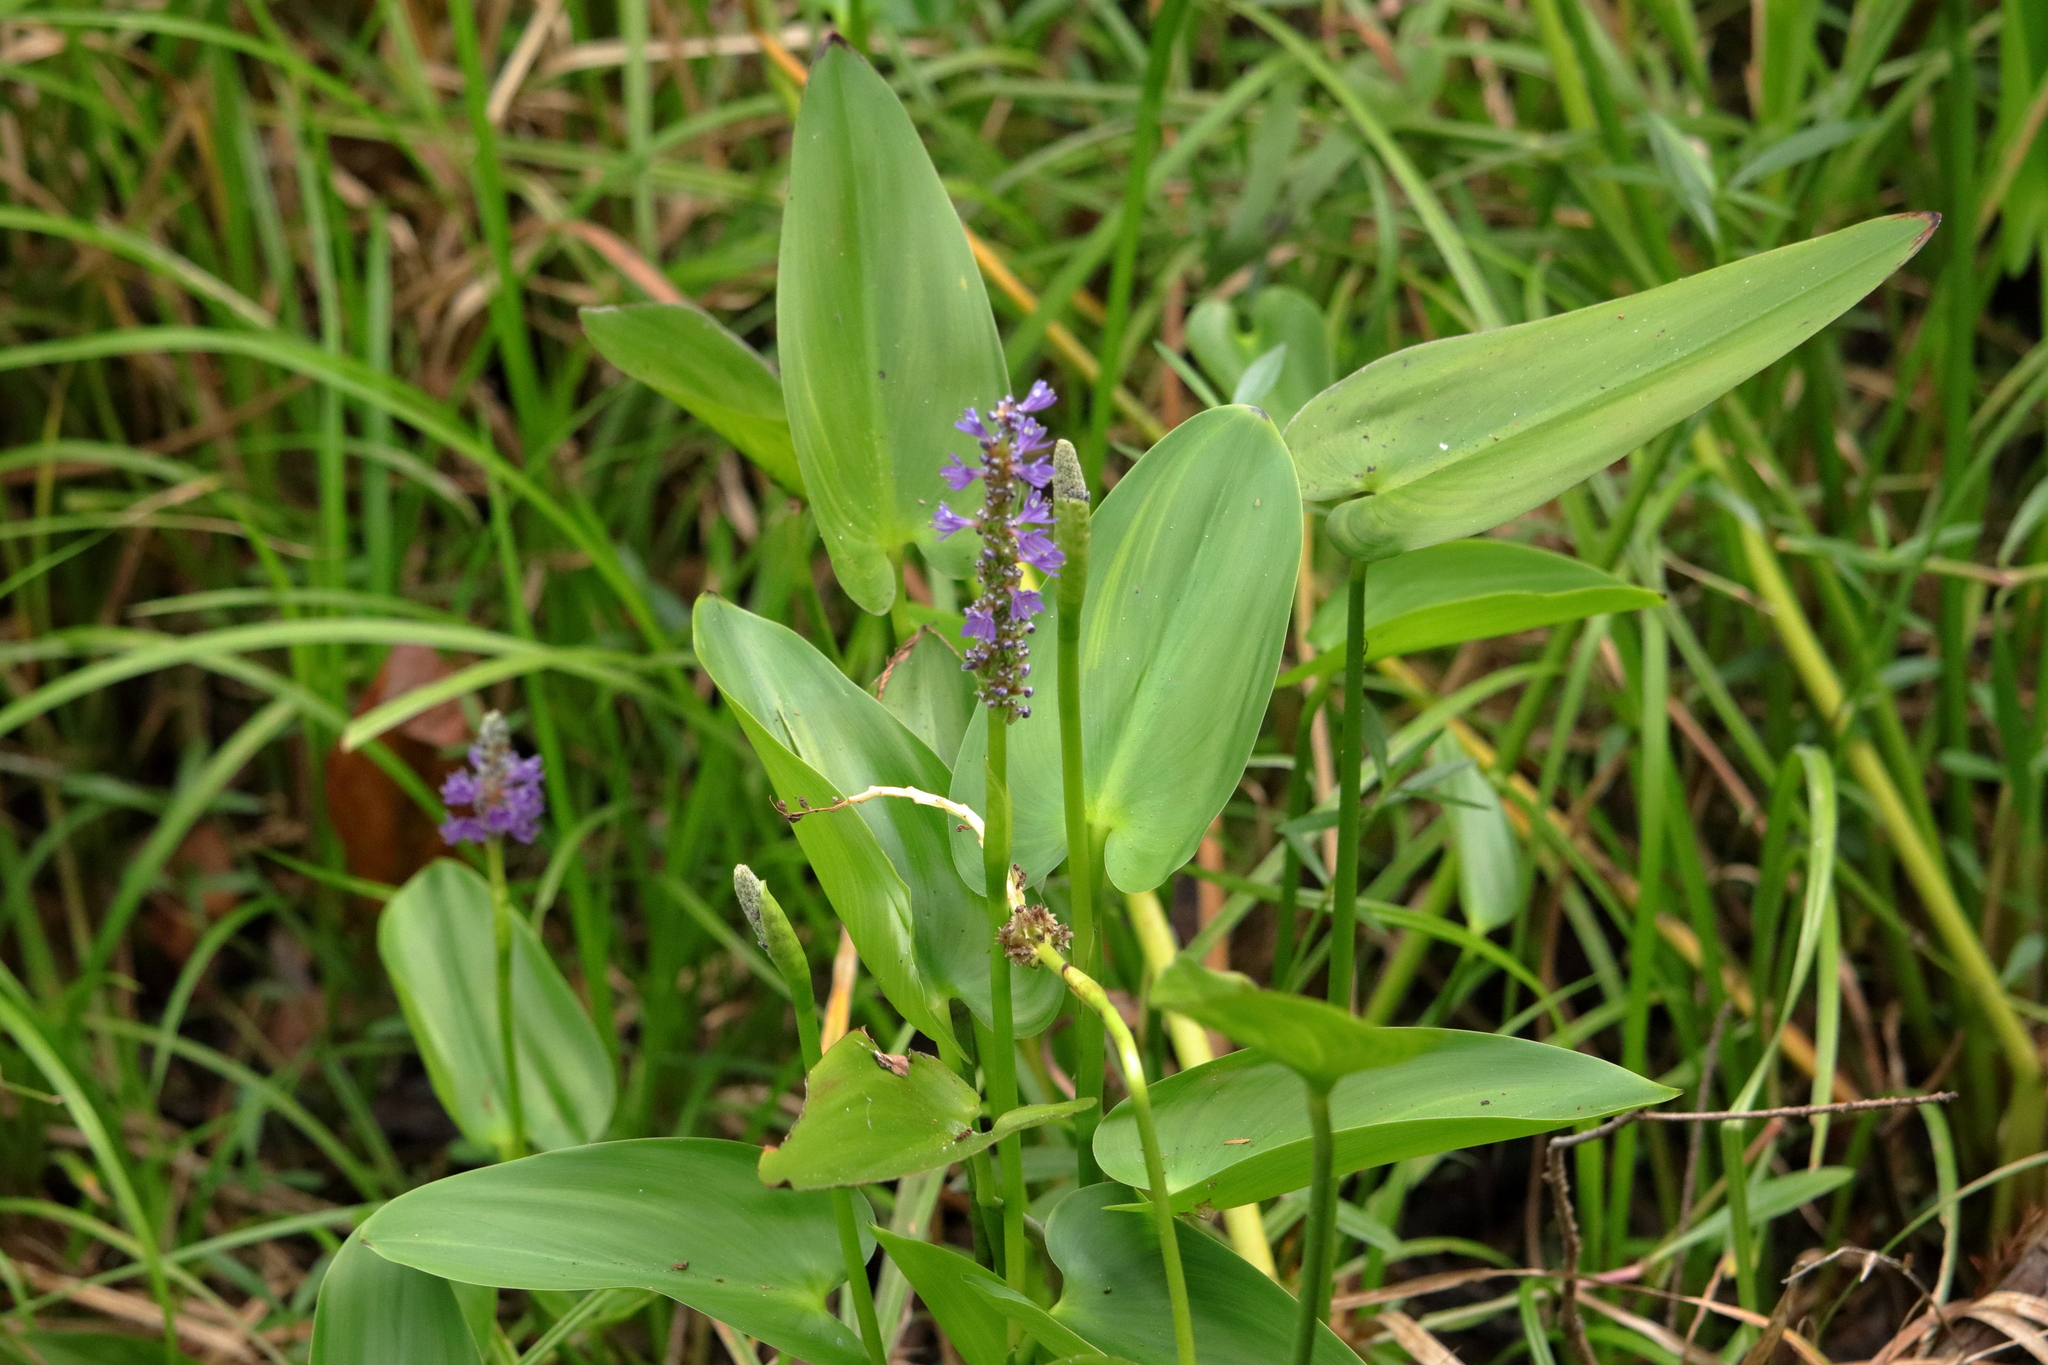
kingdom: Plantae
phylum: Tracheophyta
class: Liliopsida
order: Commelinales
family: Pontederiaceae
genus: Pontederia
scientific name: Pontederia cordata
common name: Pickerelweed
